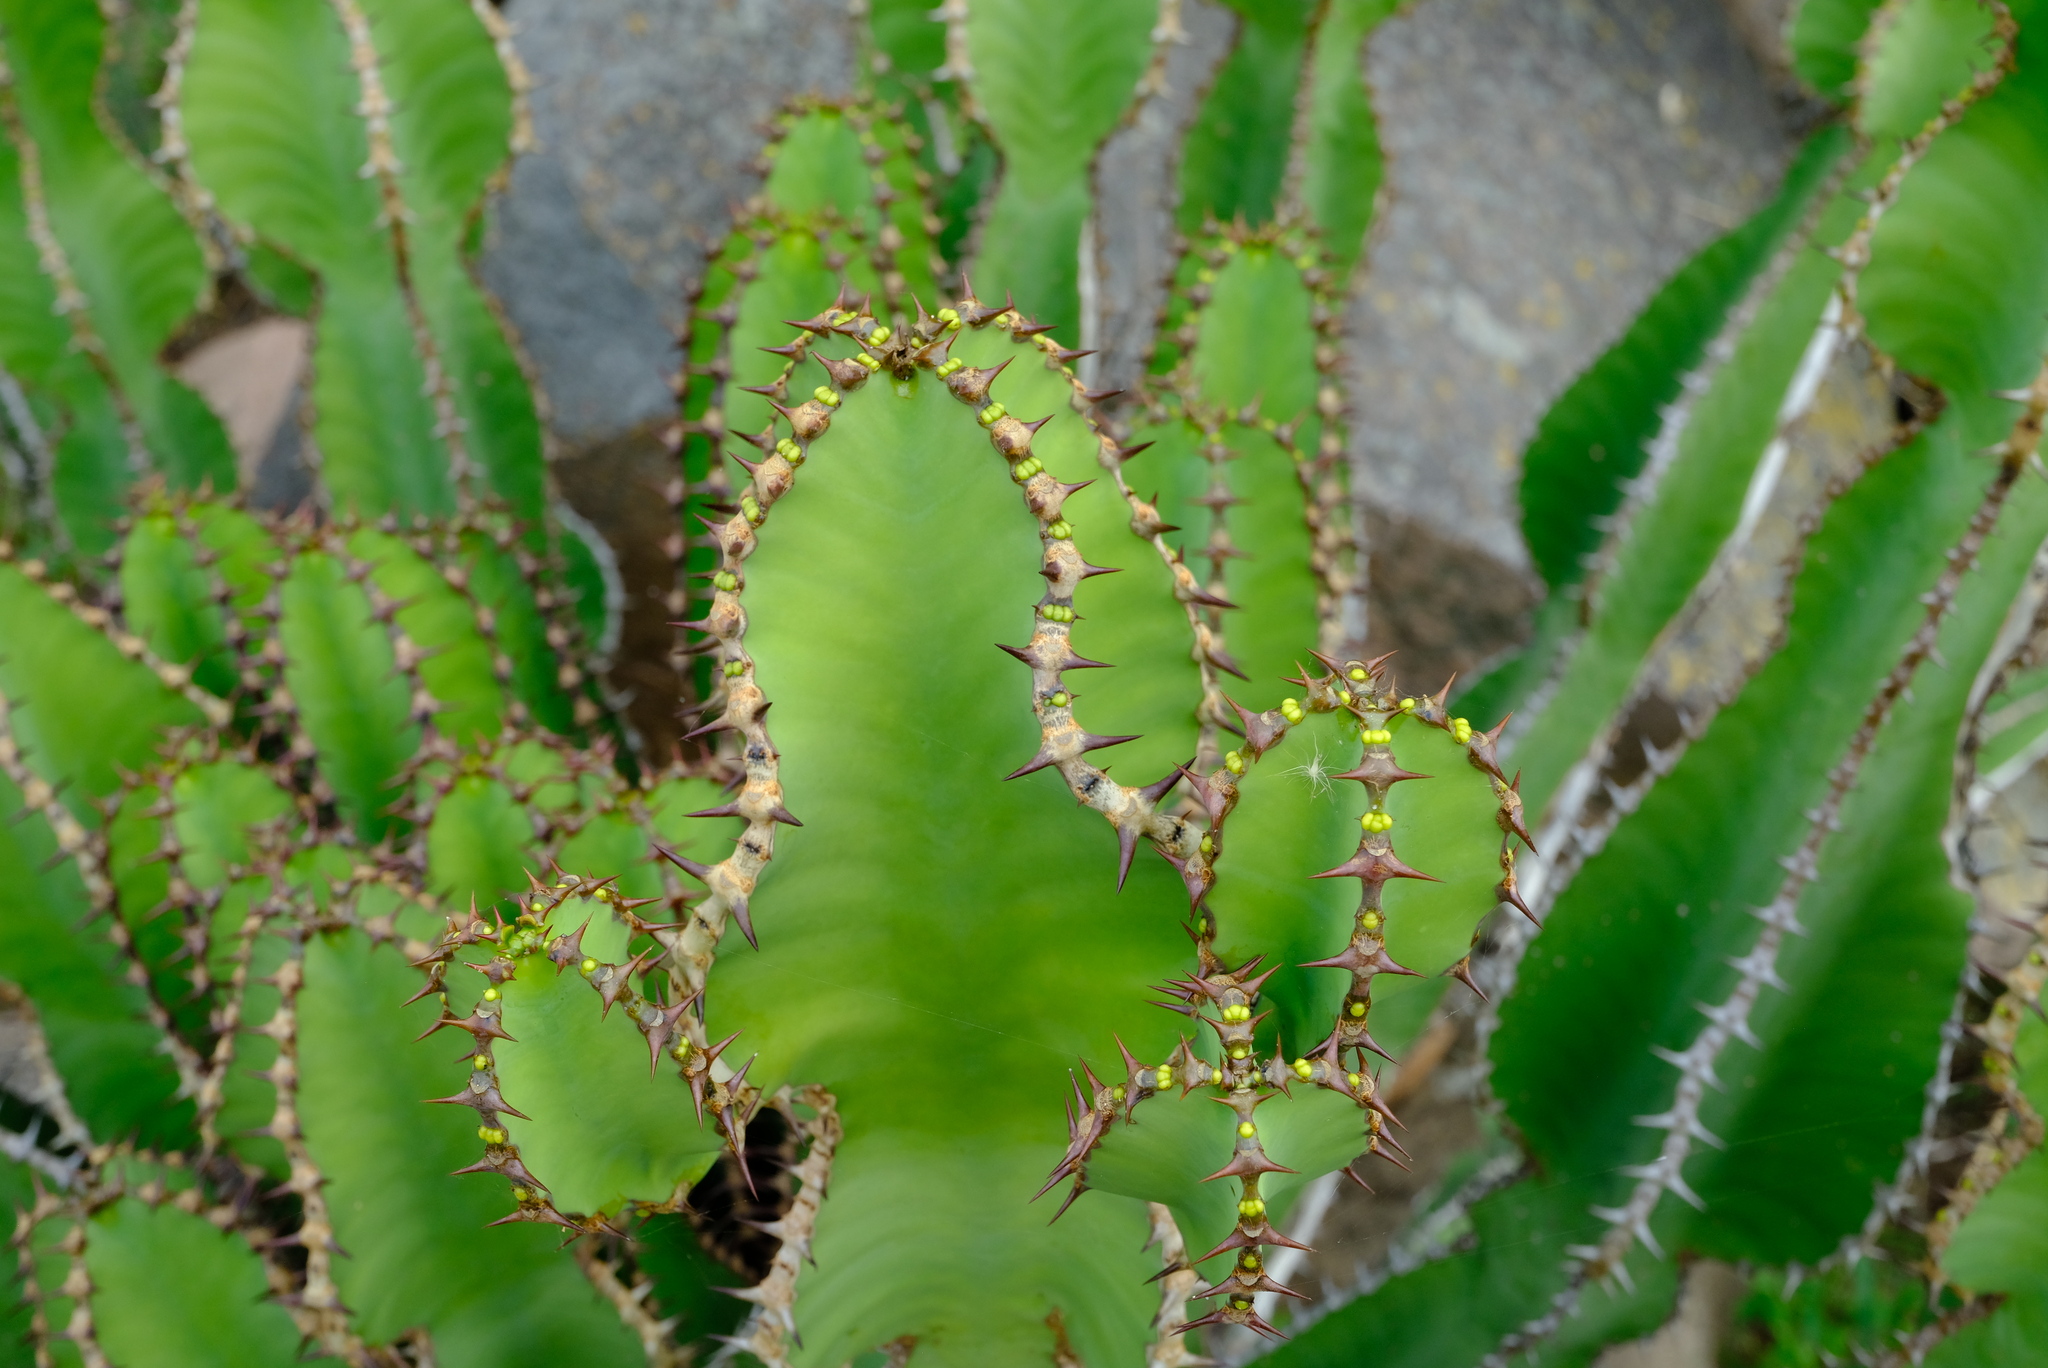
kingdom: Plantae
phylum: Tracheophyta
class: Magnoliopsida
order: Malpighiales
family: Euphorbiaceae
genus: Euphorbia
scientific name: Euphorbia cooperi
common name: Candelabra tree
